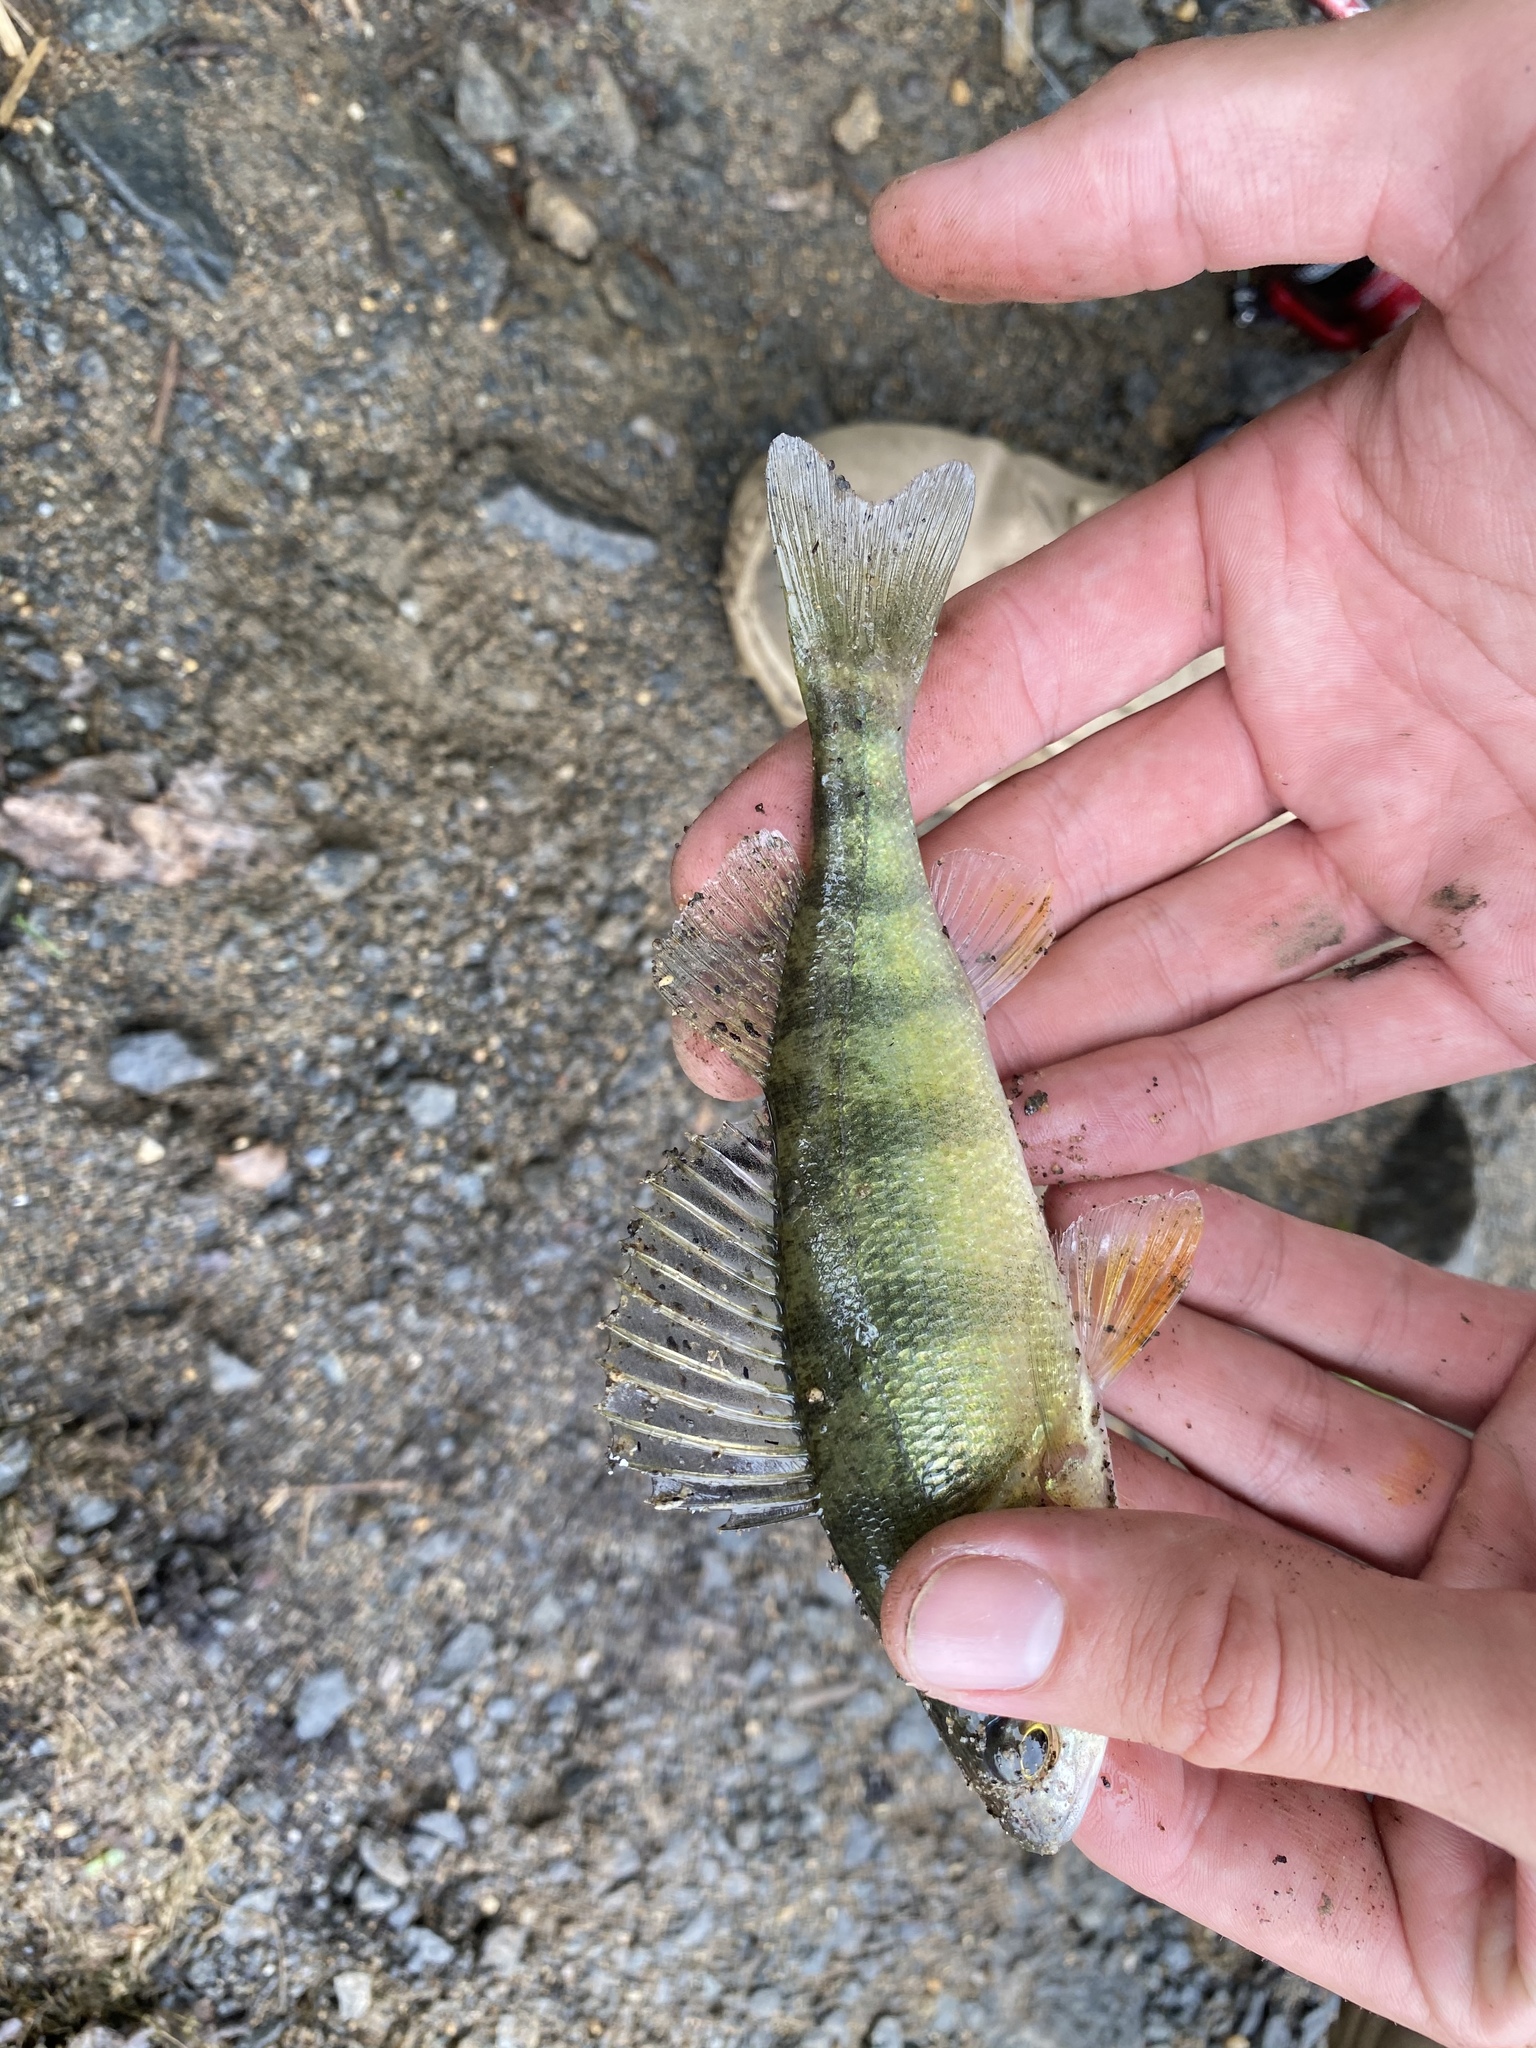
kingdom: Animalia
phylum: Chordata
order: Perciformes
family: Percidae
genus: Perca
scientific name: Perca flavescens
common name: Yellow perch
